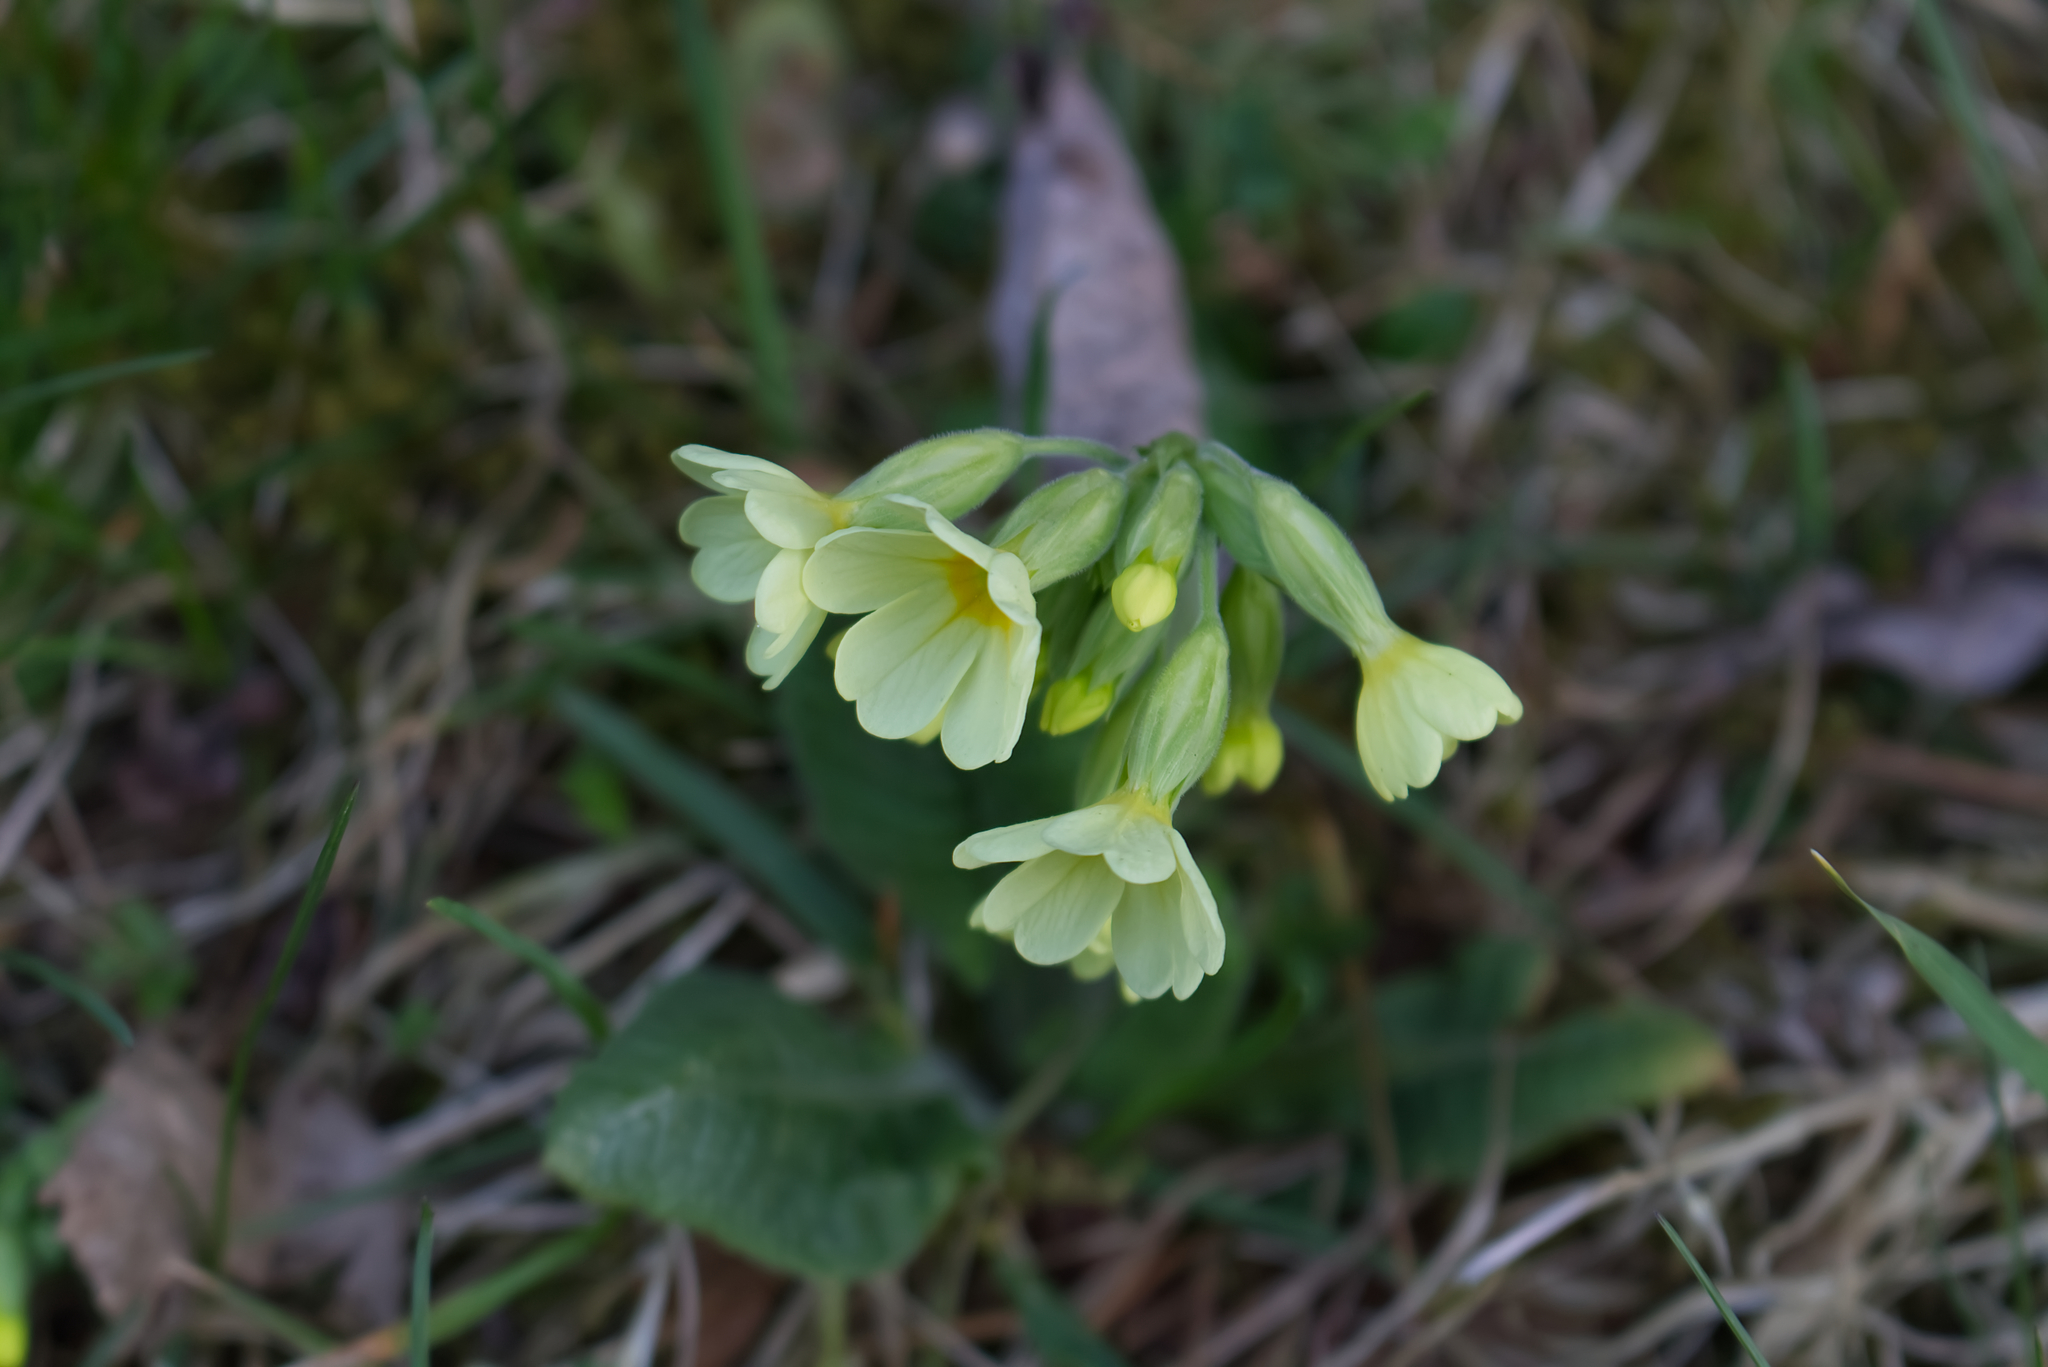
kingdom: Plantae
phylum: Tracheophyta
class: Magnoliopsida
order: Ericales
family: Primulaceae
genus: Primula
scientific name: Primula elatior
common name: Oxlip
